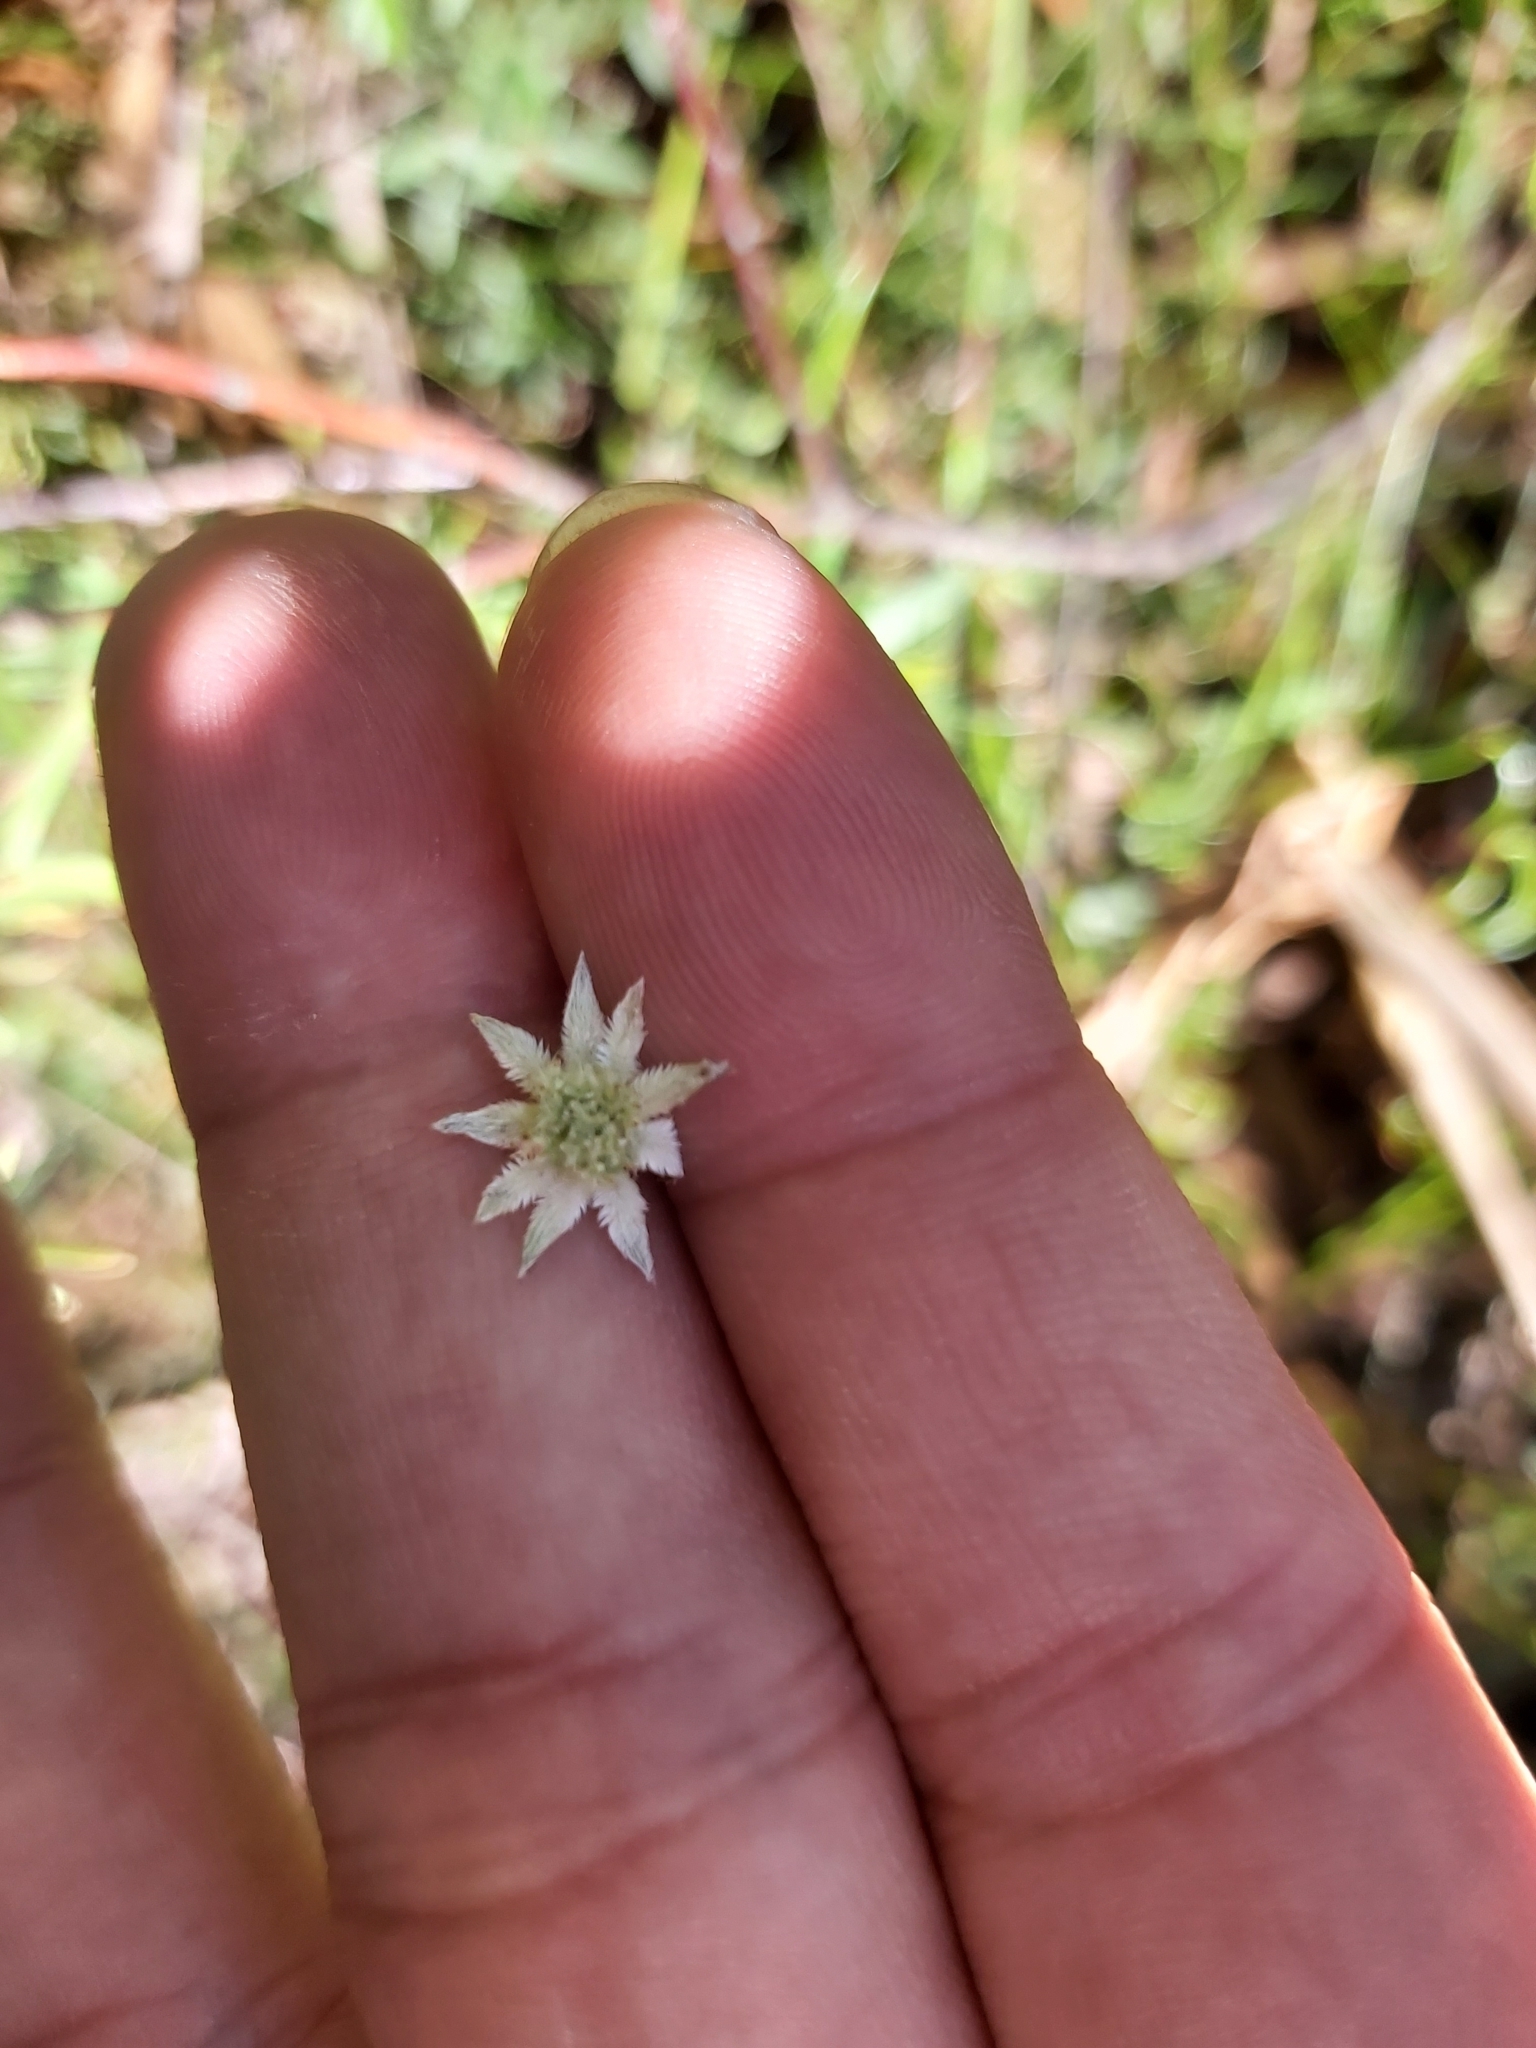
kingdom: Plantae
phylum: Tracheophyta
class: Magnoliopsida
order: Apiales
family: Apiaceae
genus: Actinotus
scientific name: Actinotus minor
